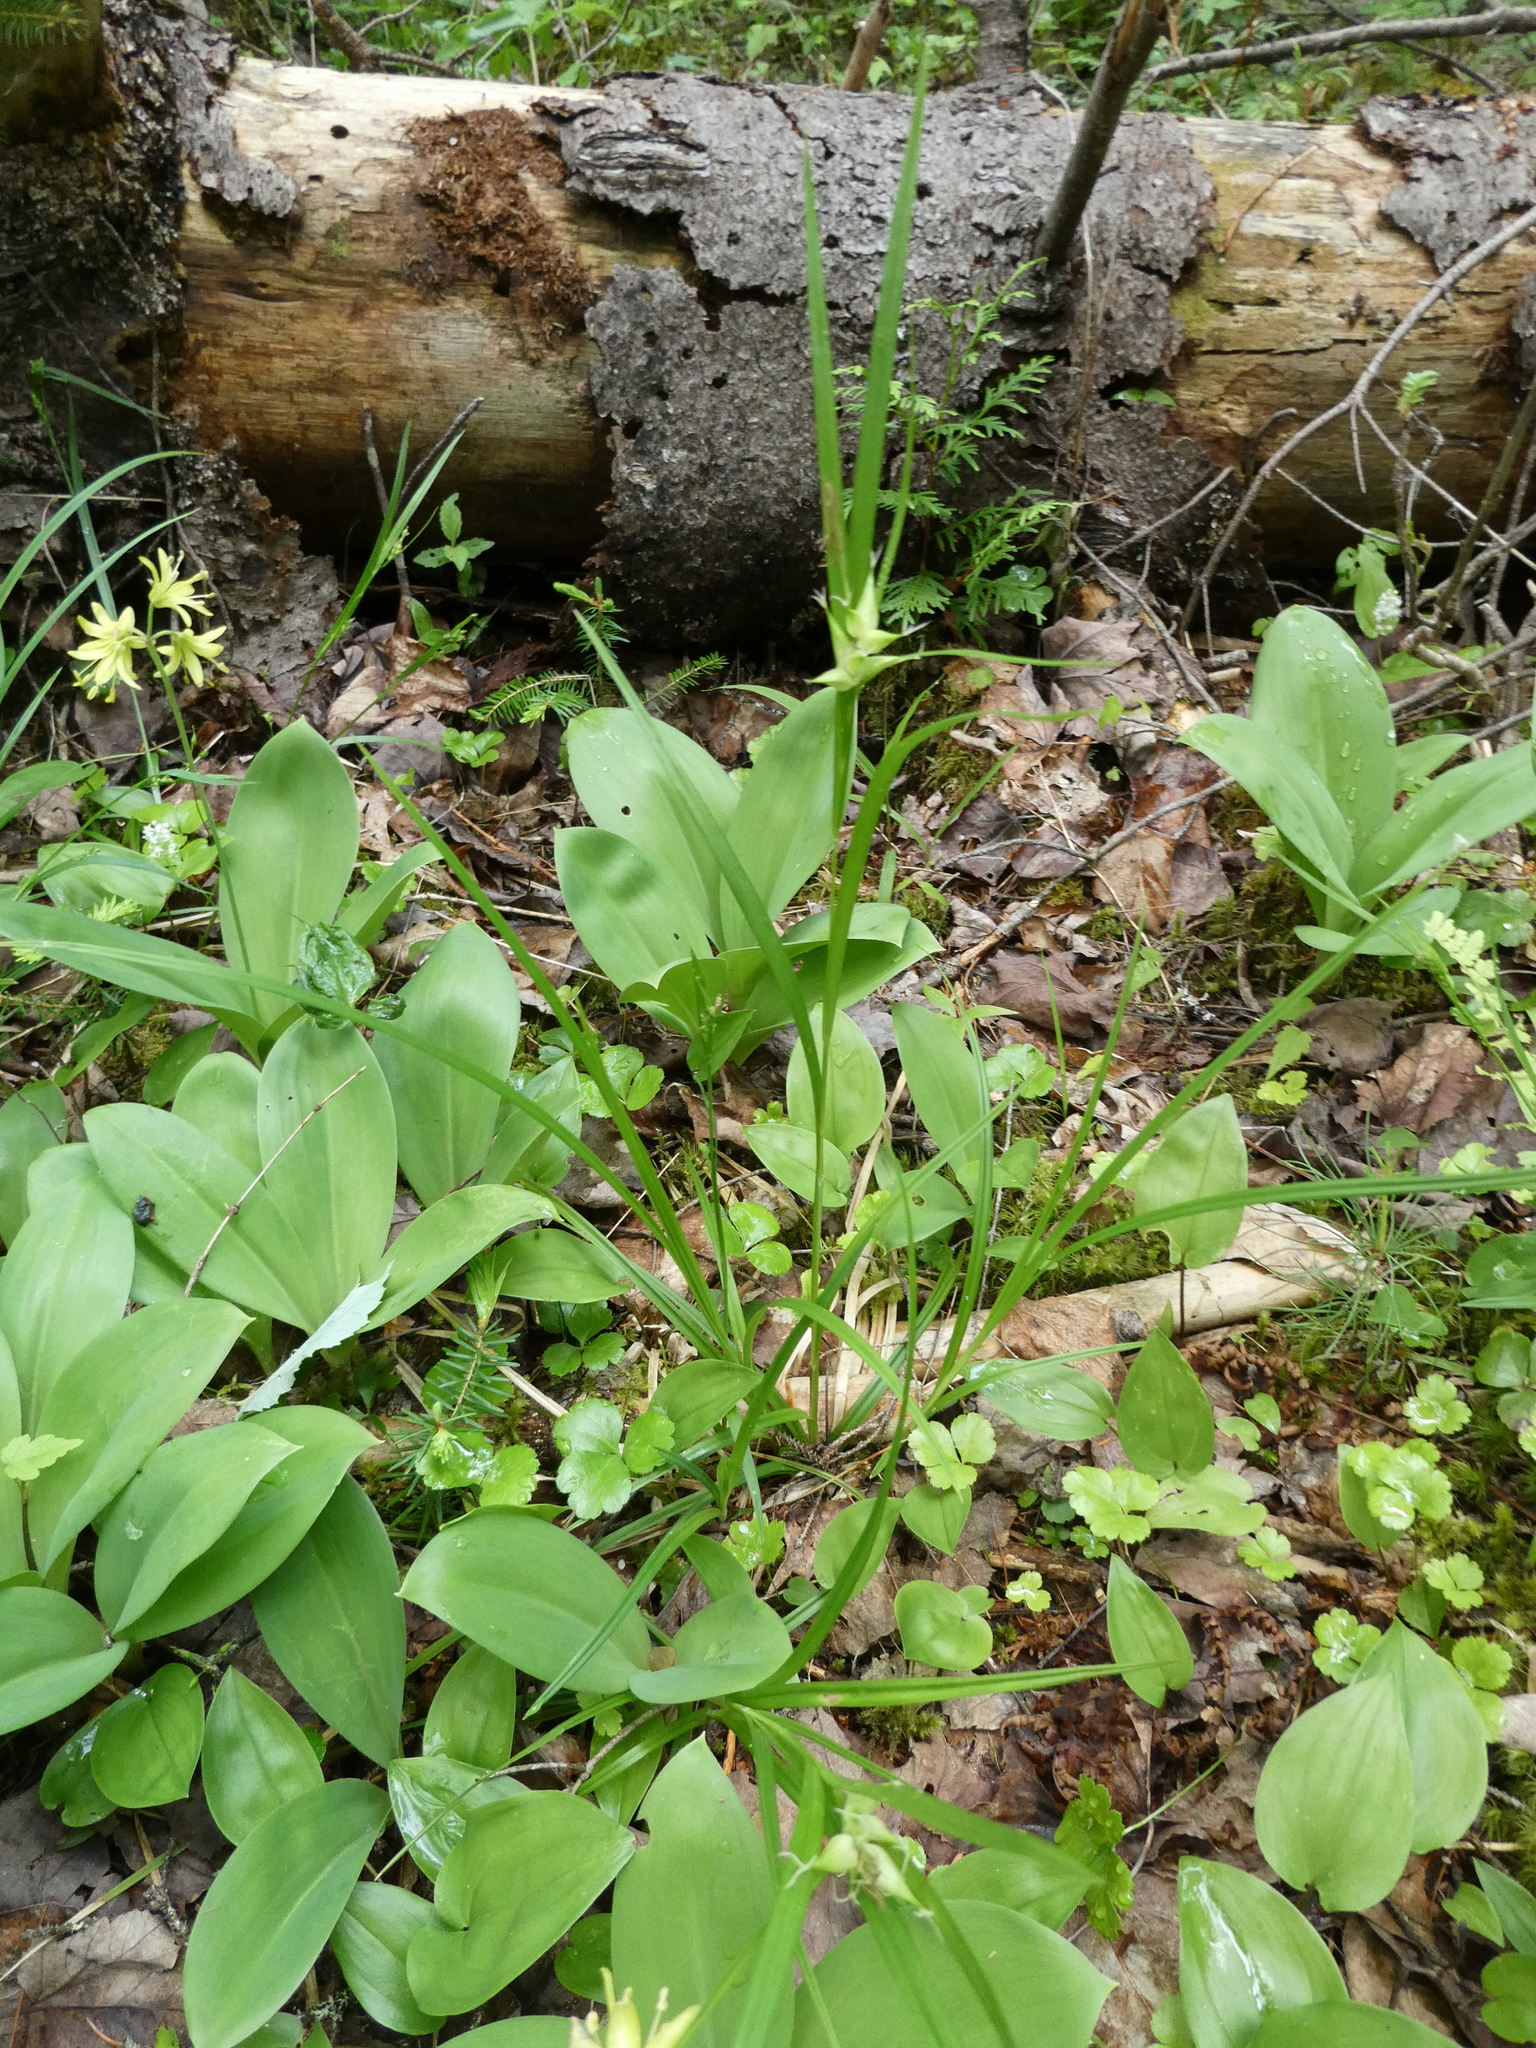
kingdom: Plantae
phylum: Tracheophyta
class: Liliopsida
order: Poales
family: Cyperaceae
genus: Carex
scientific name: Carex intumescens
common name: Greater bladder sedge
